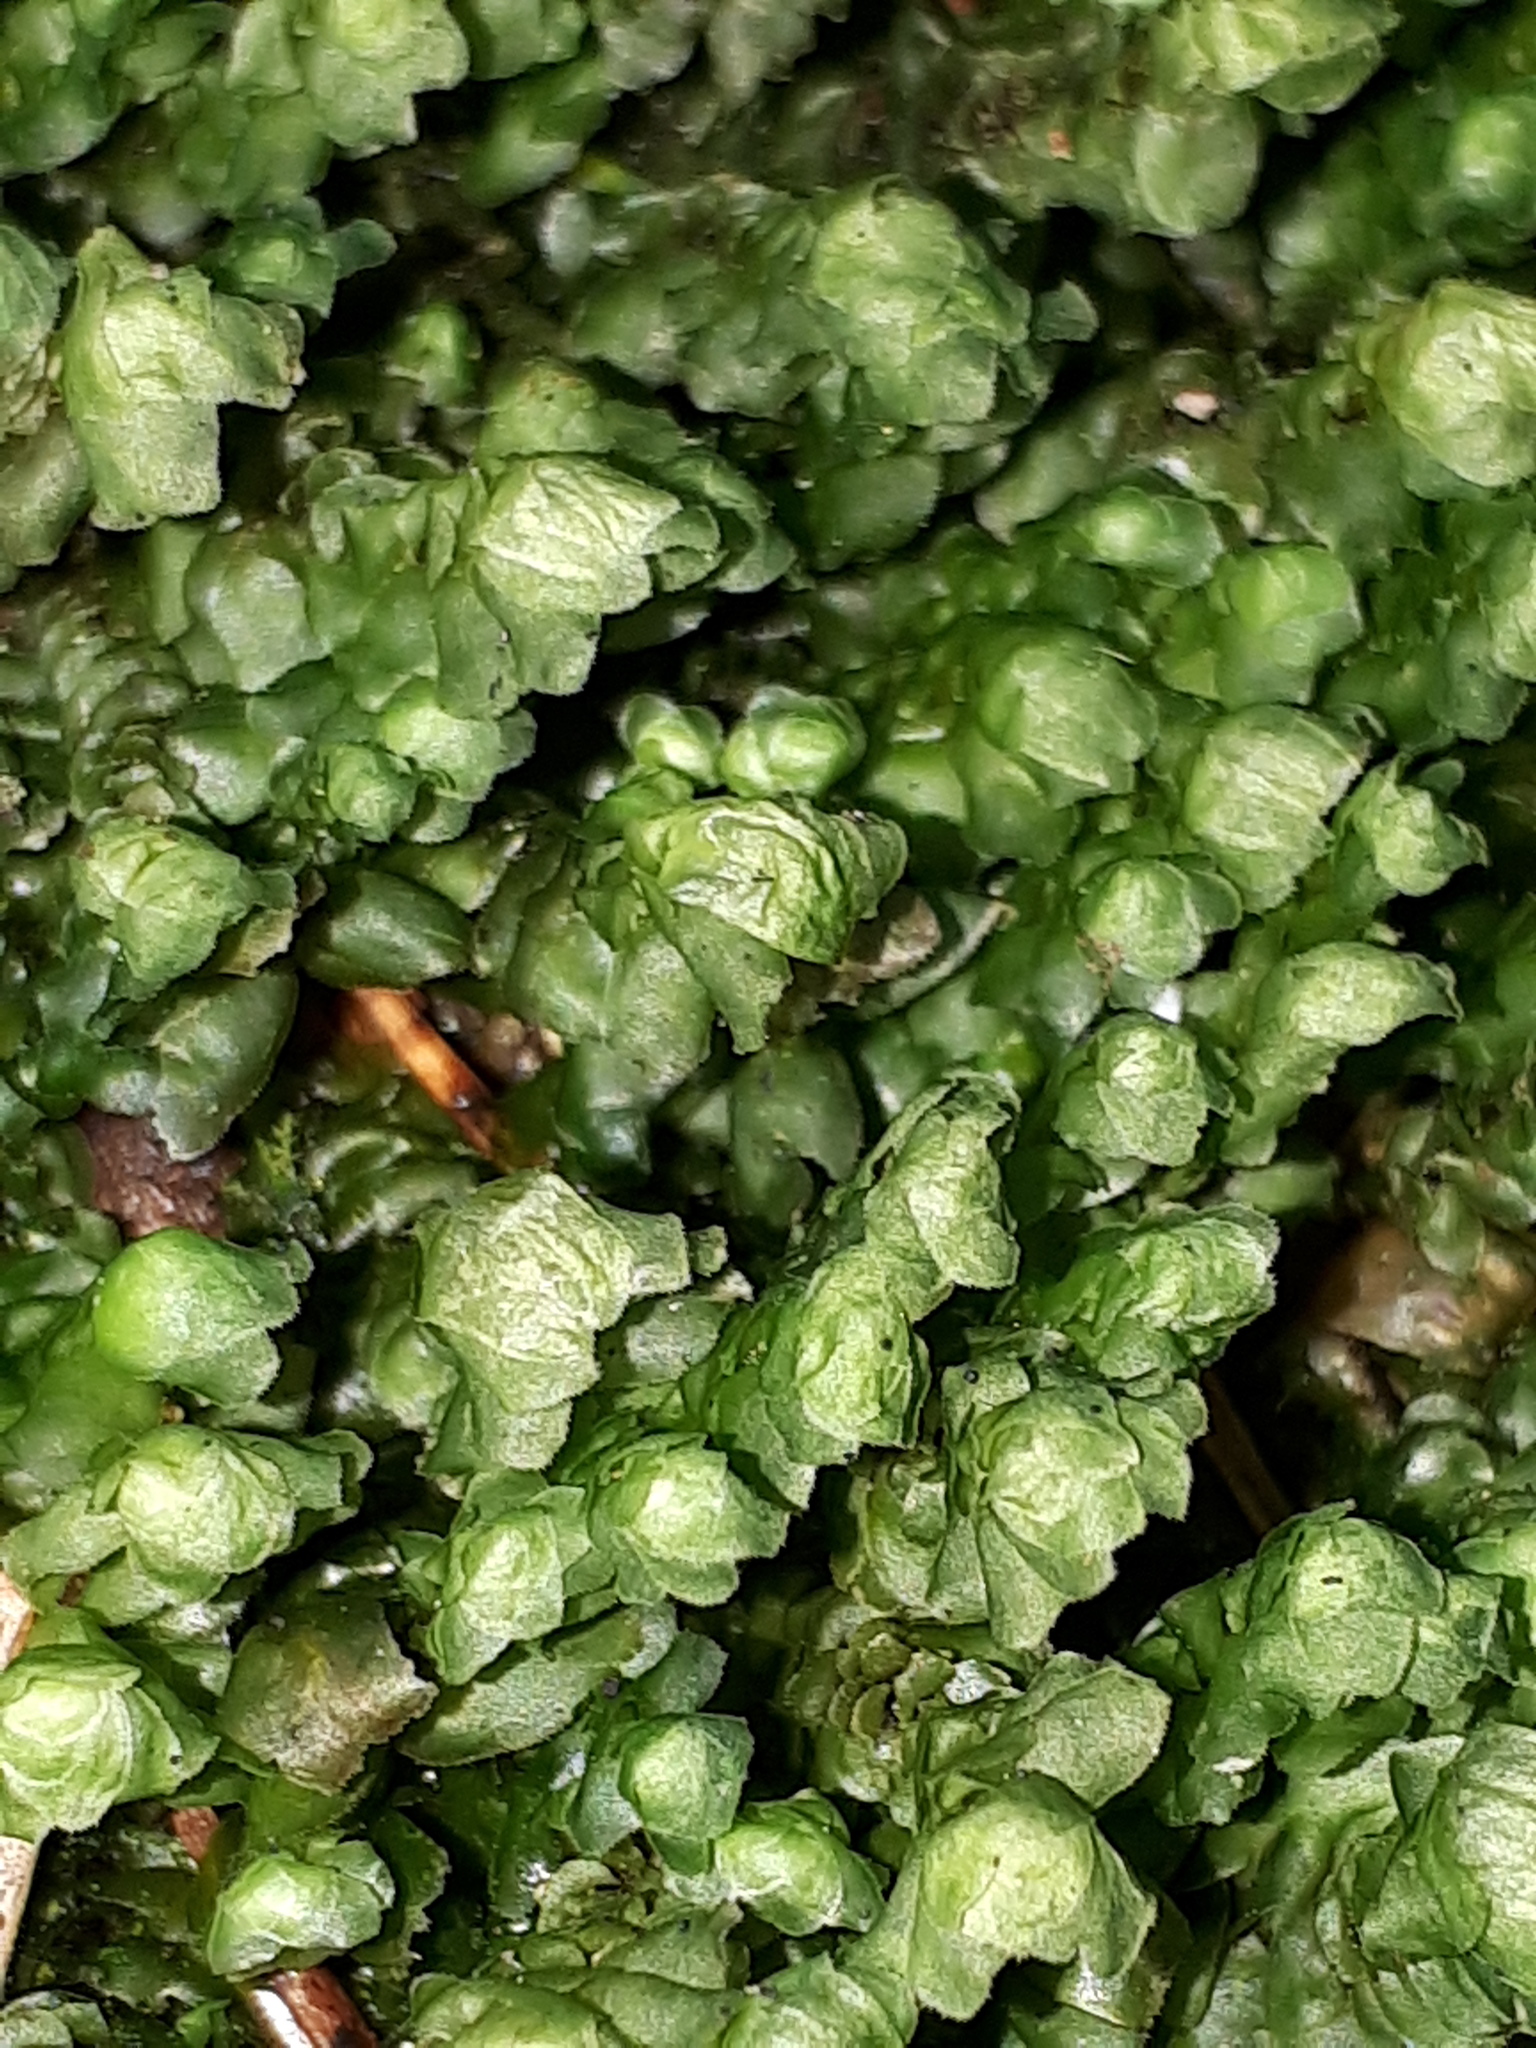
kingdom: Plantae
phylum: Marchantiophyta
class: Jungermanniopsida
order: Jungermanniales
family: Scapaniaceae
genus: Scapania
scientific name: Scapania nemorea
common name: Grove earwort
